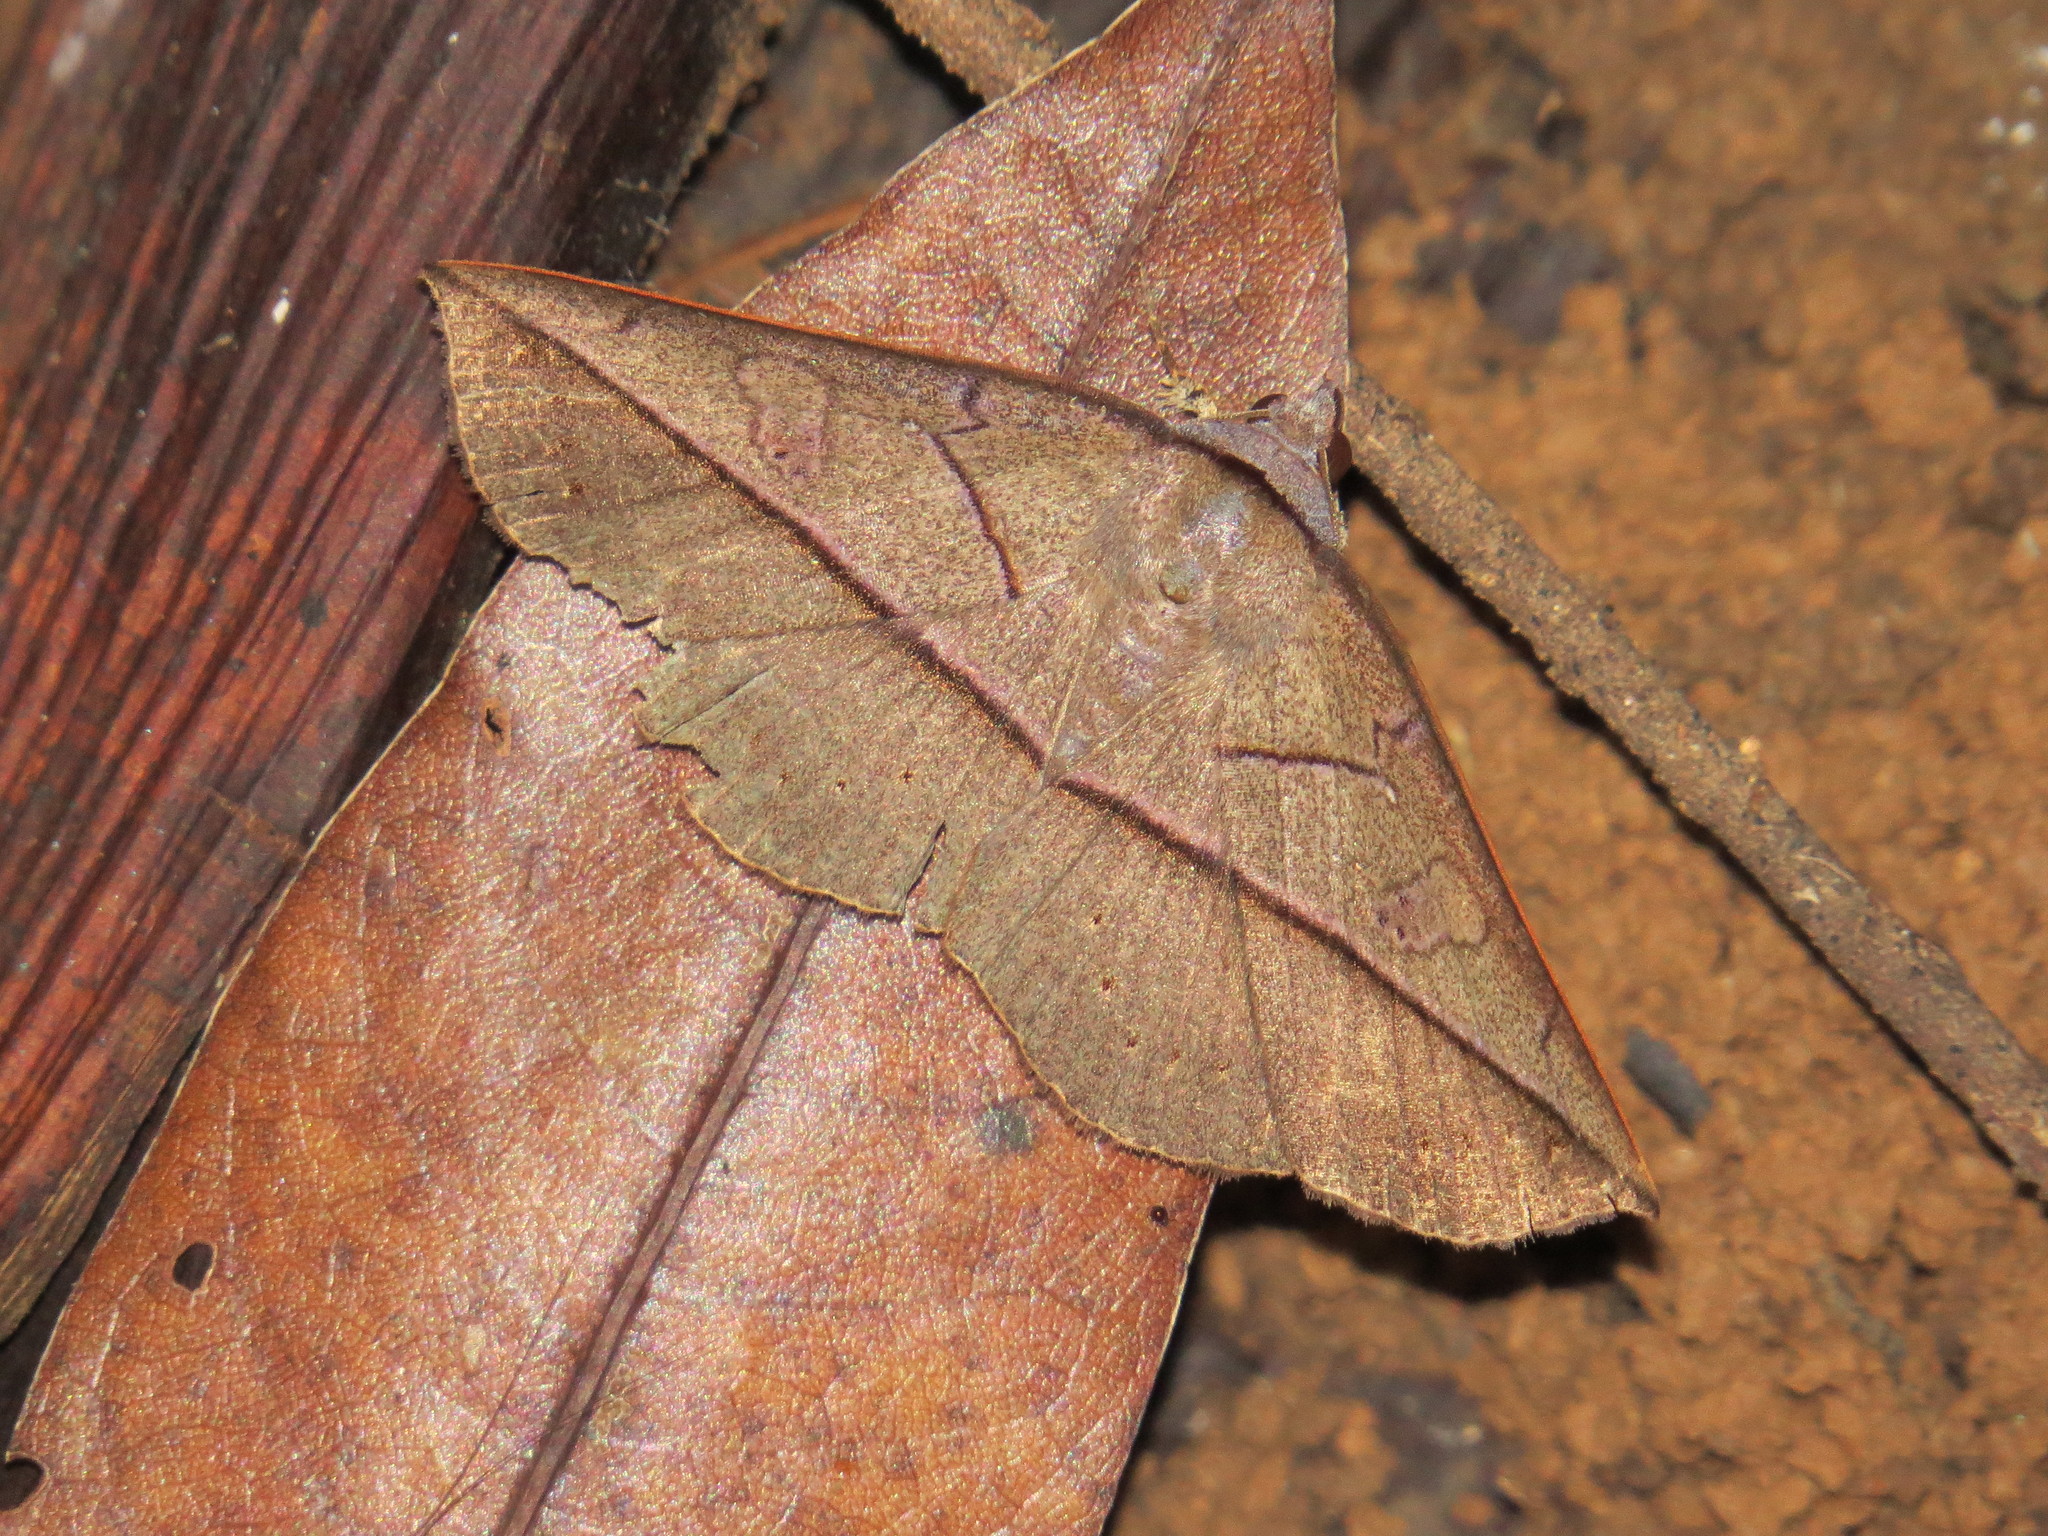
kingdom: Animalia
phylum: Arthropoda
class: Insecta
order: Lepidoptera
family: Erebidae
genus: Sanys
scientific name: Sanys terranea
